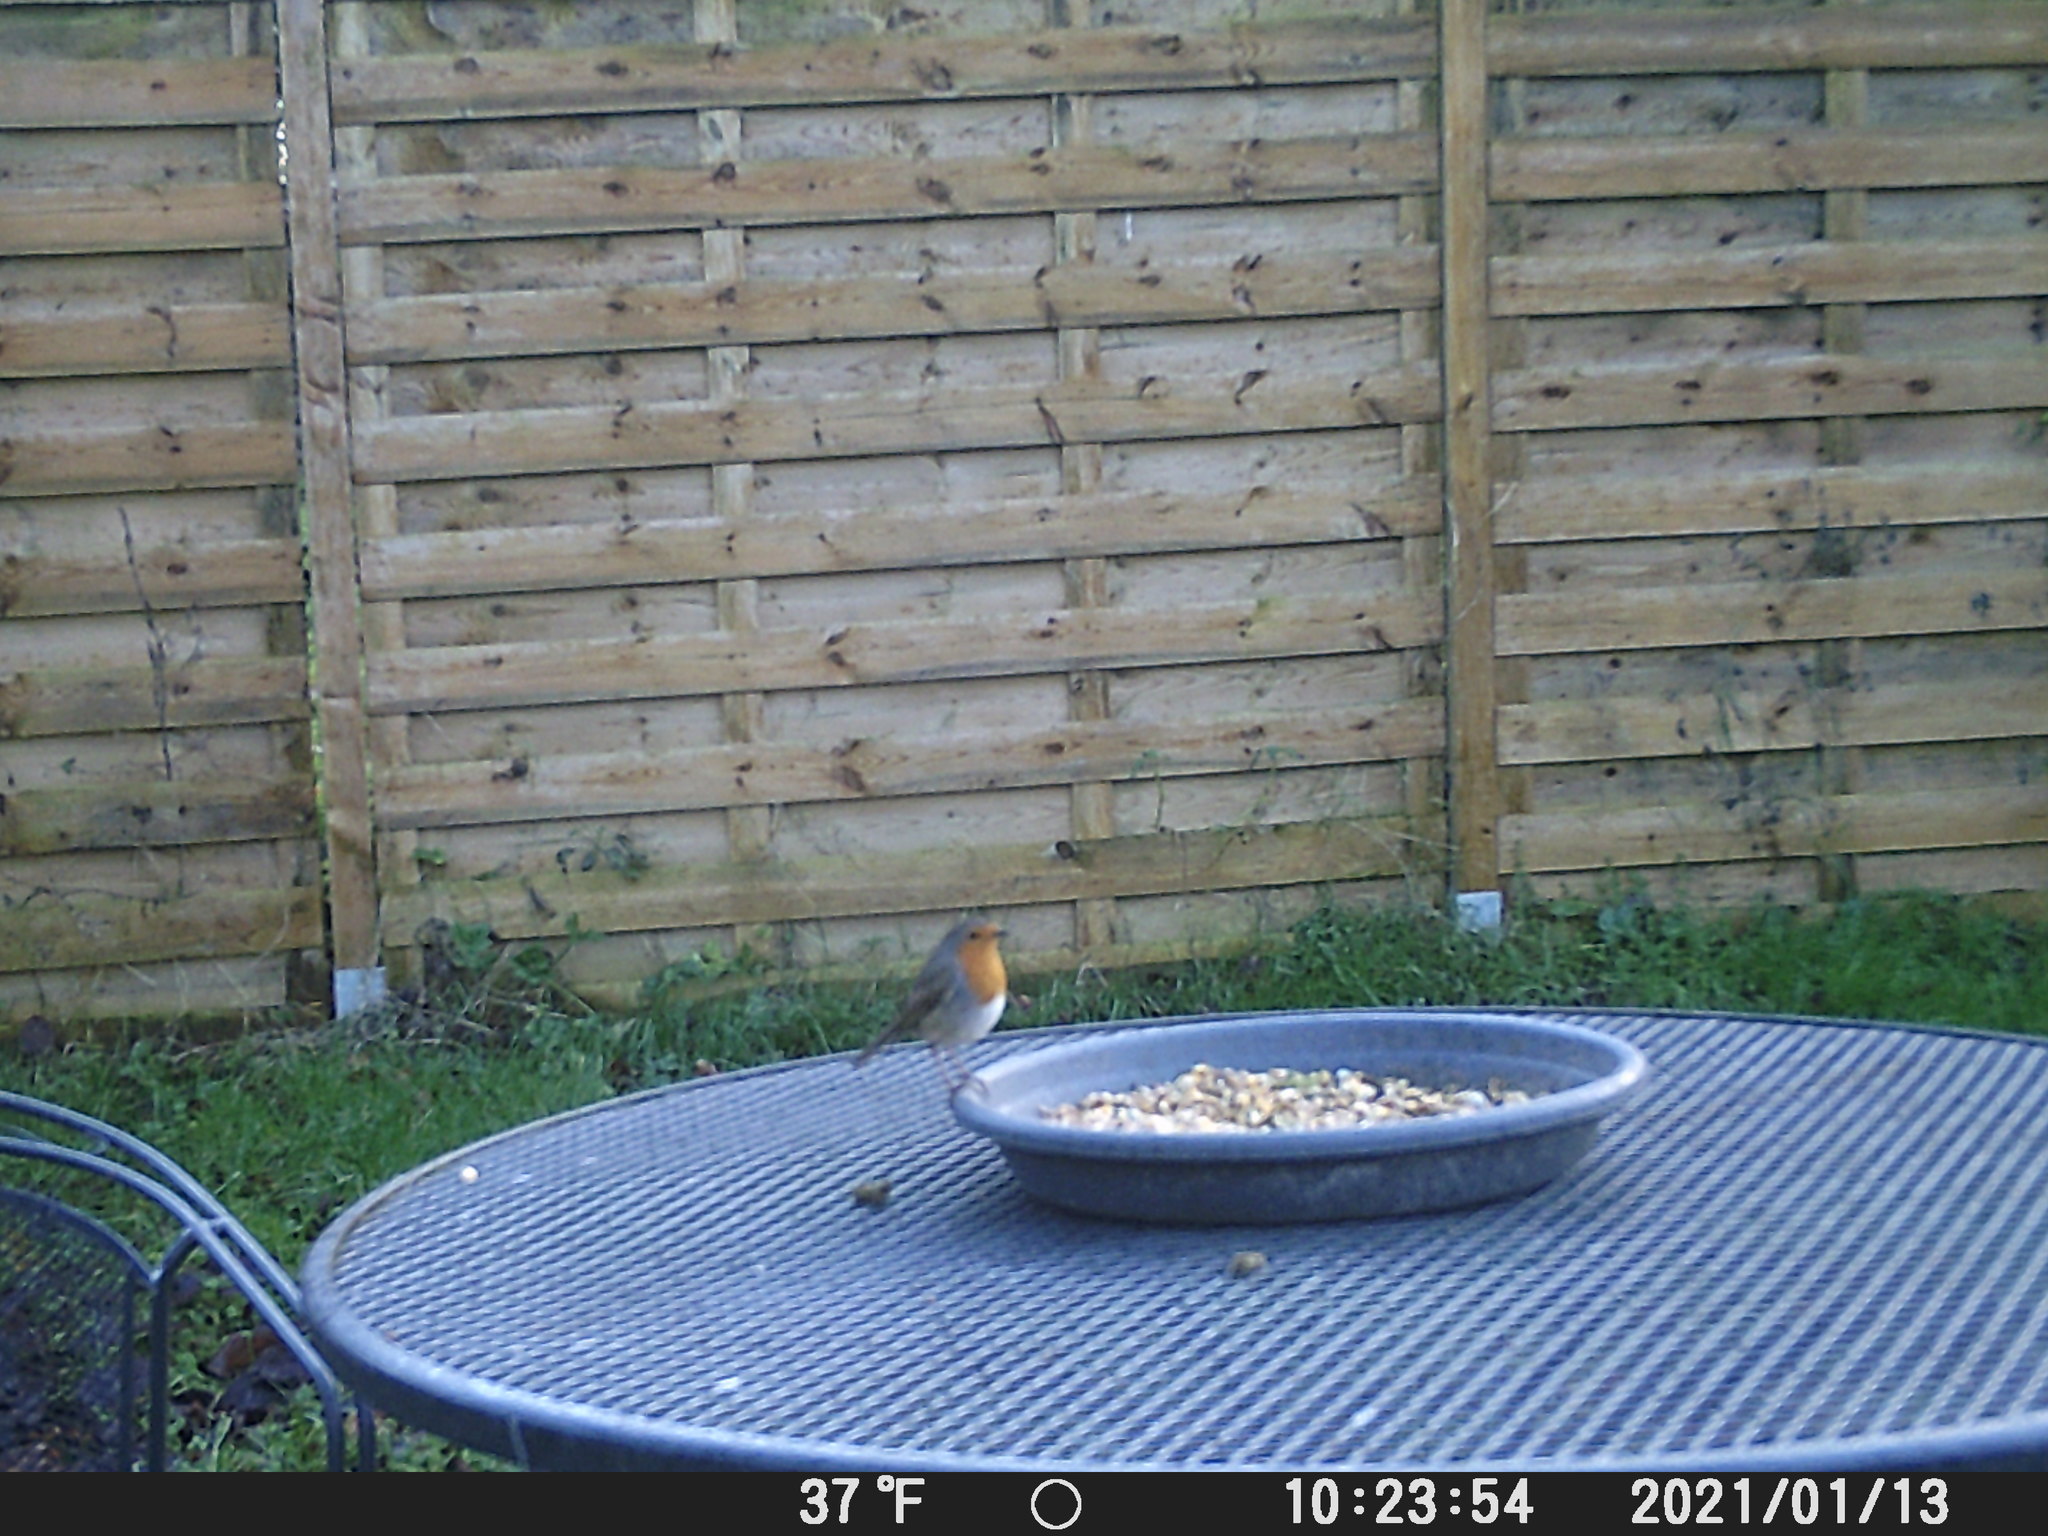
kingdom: Animalia
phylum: Chordata
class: Aves
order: Passeriformes
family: Muscicapidae
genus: Erithacus
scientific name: Erithacus rubecula
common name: European robin
